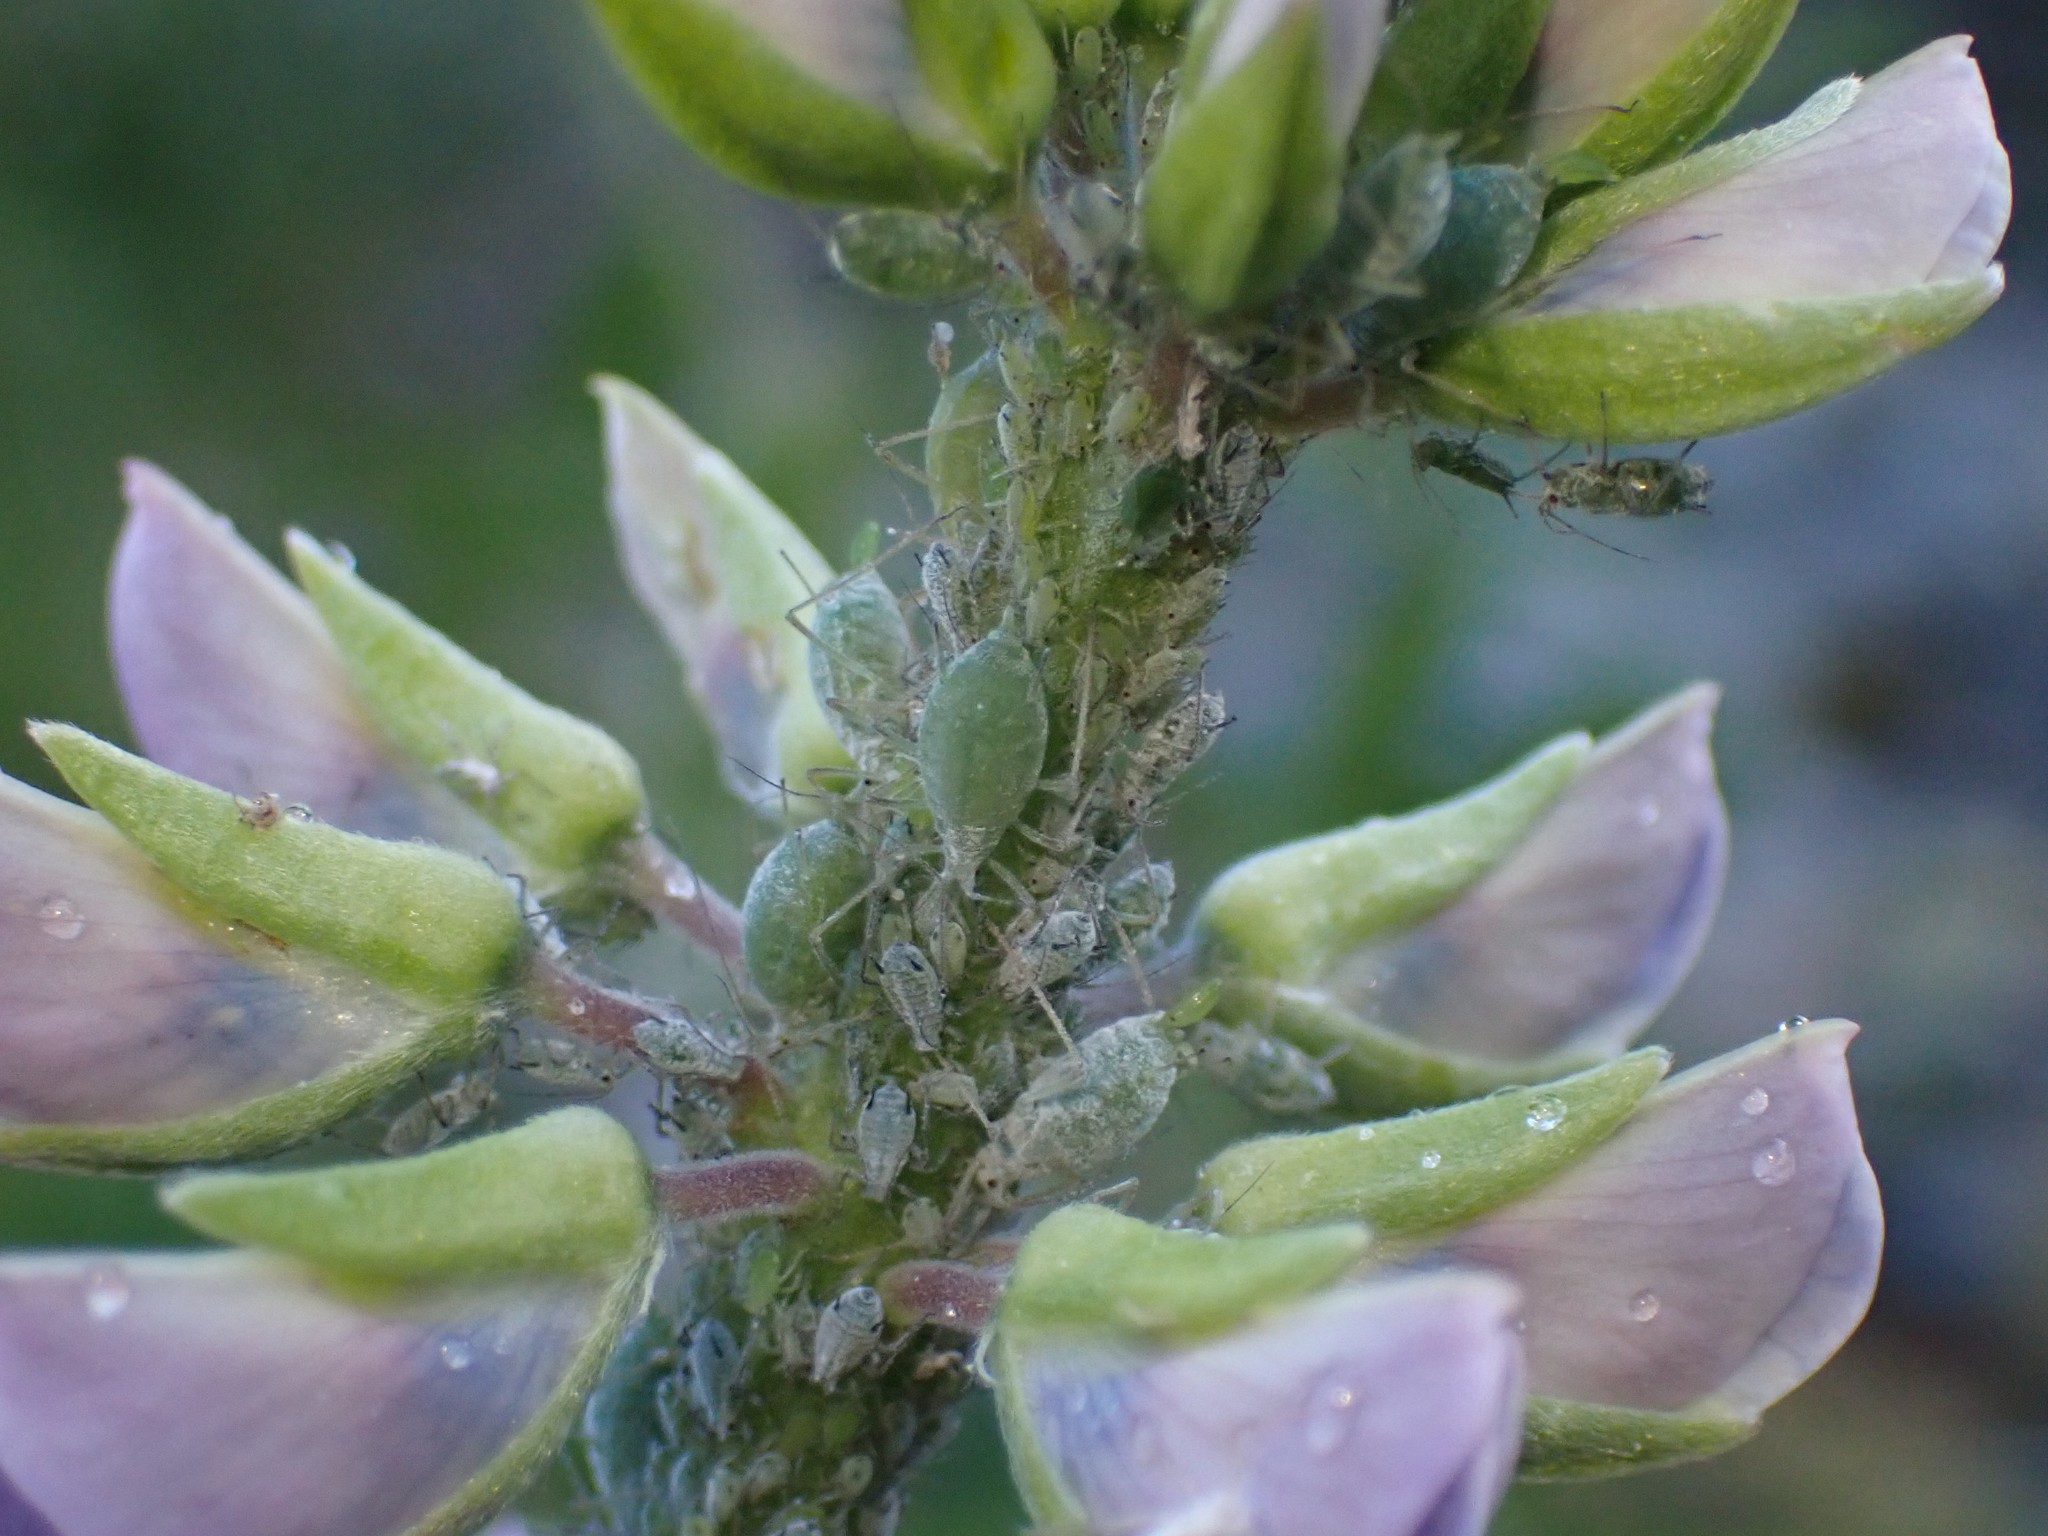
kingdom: Animalia
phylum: Arthropoda
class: Insecta
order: Hemiptera
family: Aphididae
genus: Macrosiphum
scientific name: Macrosiphum albifrons
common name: Lupine aphid
